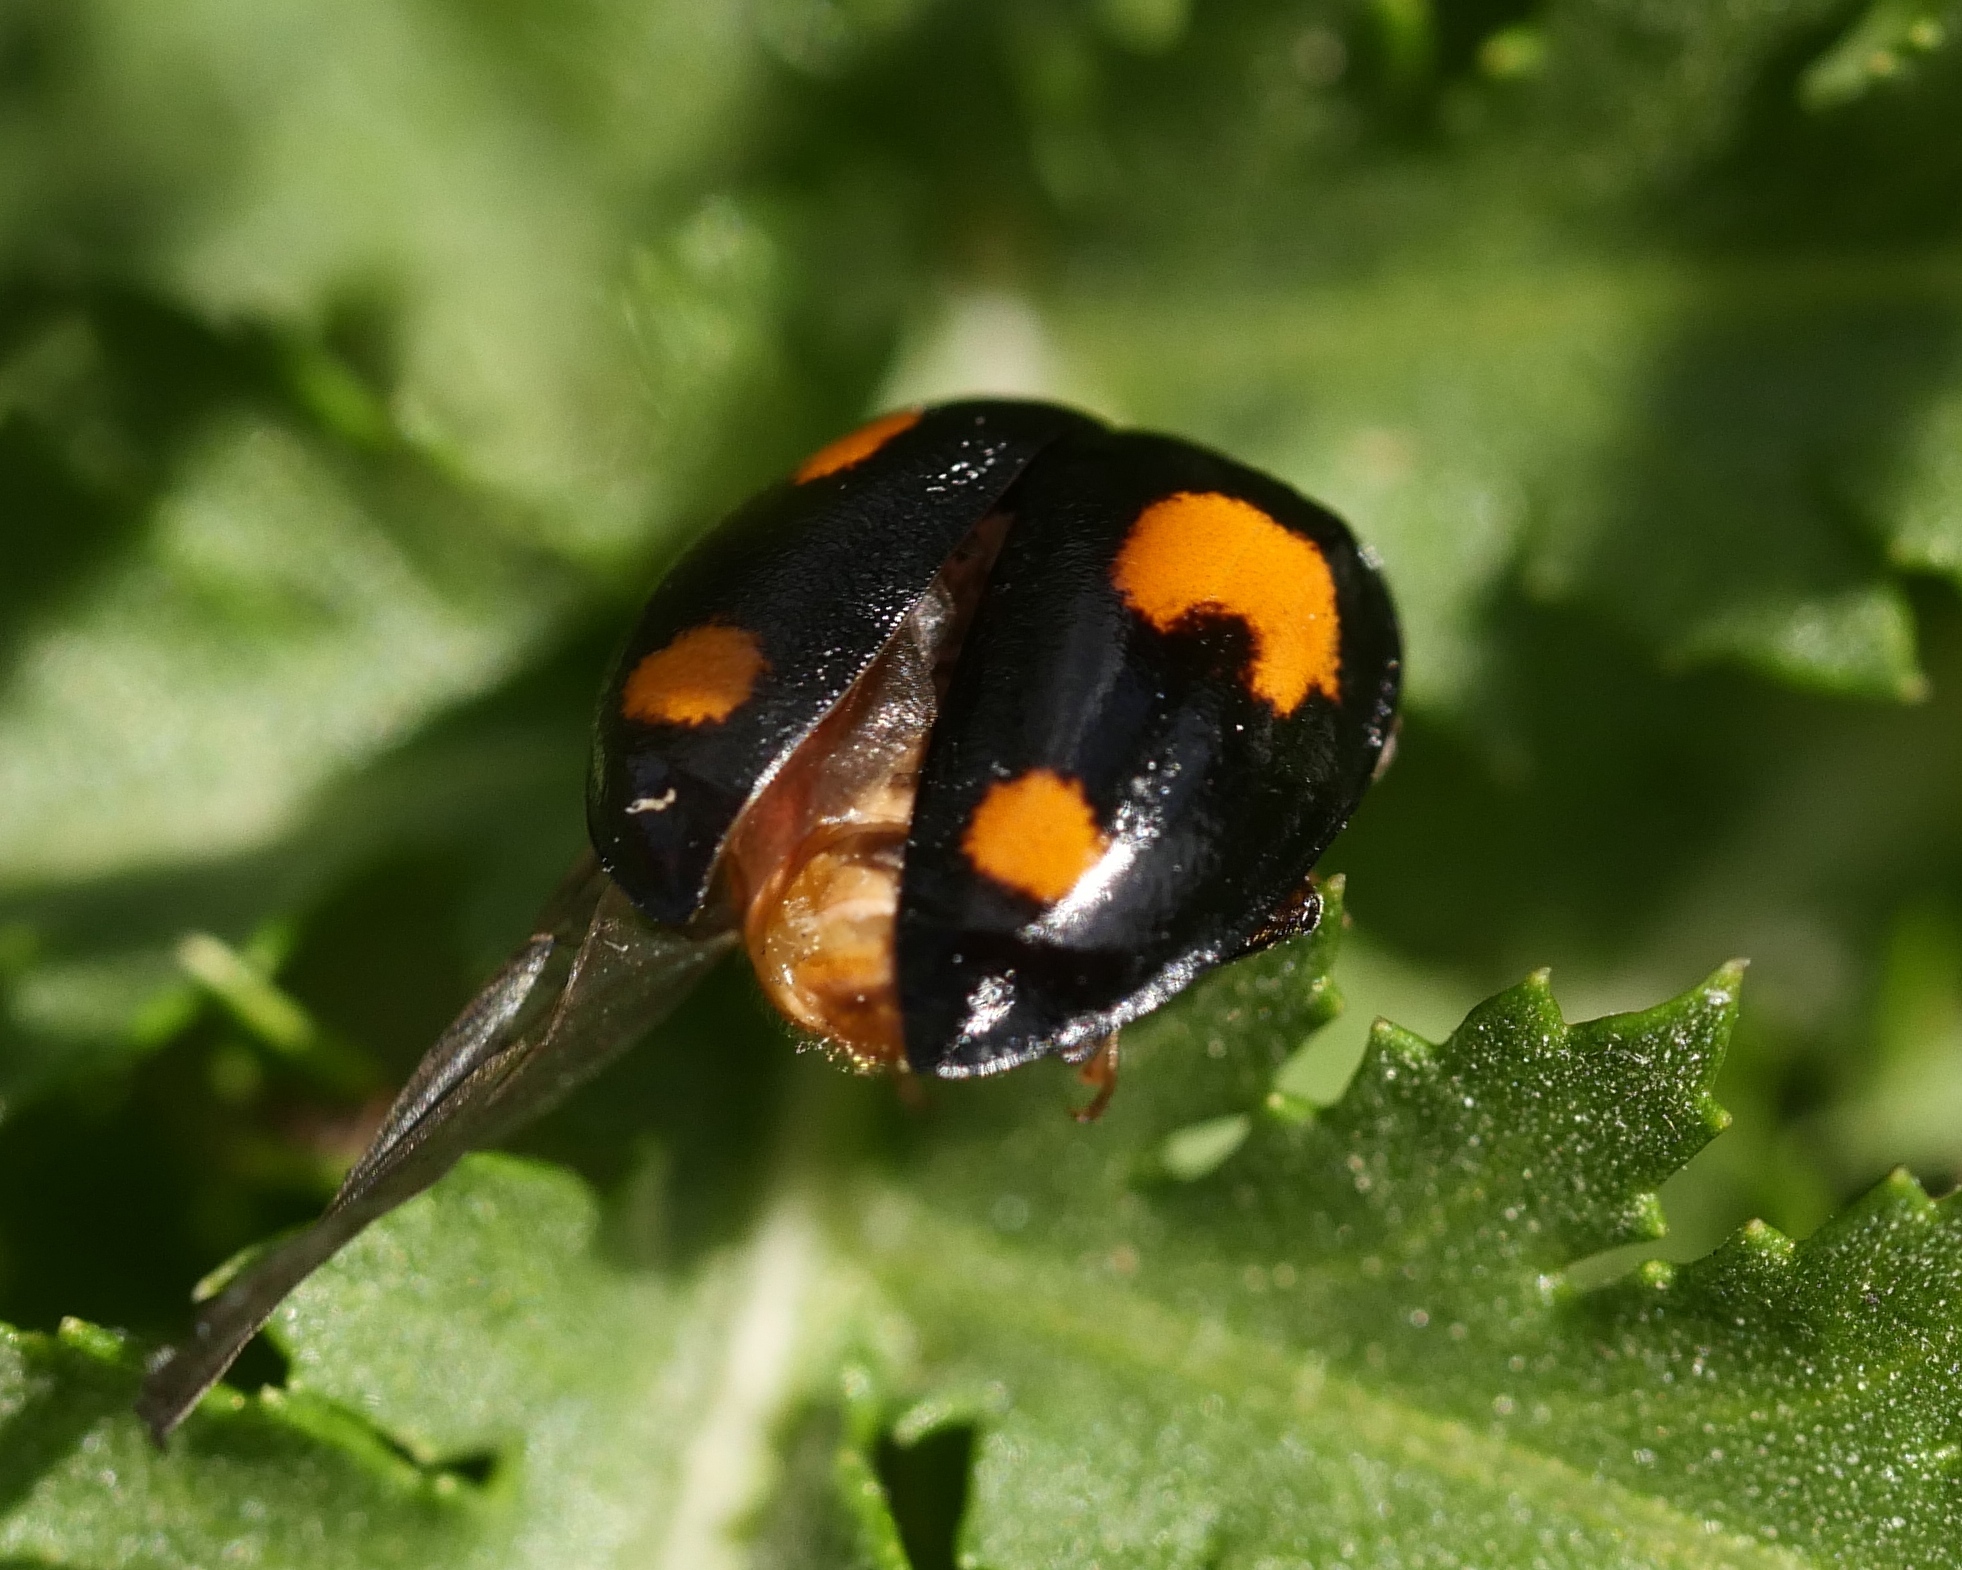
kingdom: Animalia
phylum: Arthropoda
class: Insecta
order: Coleoptera
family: Coccinellidae
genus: Harmonia
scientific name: Harmonia axyridis
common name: Harlequin ladybird
